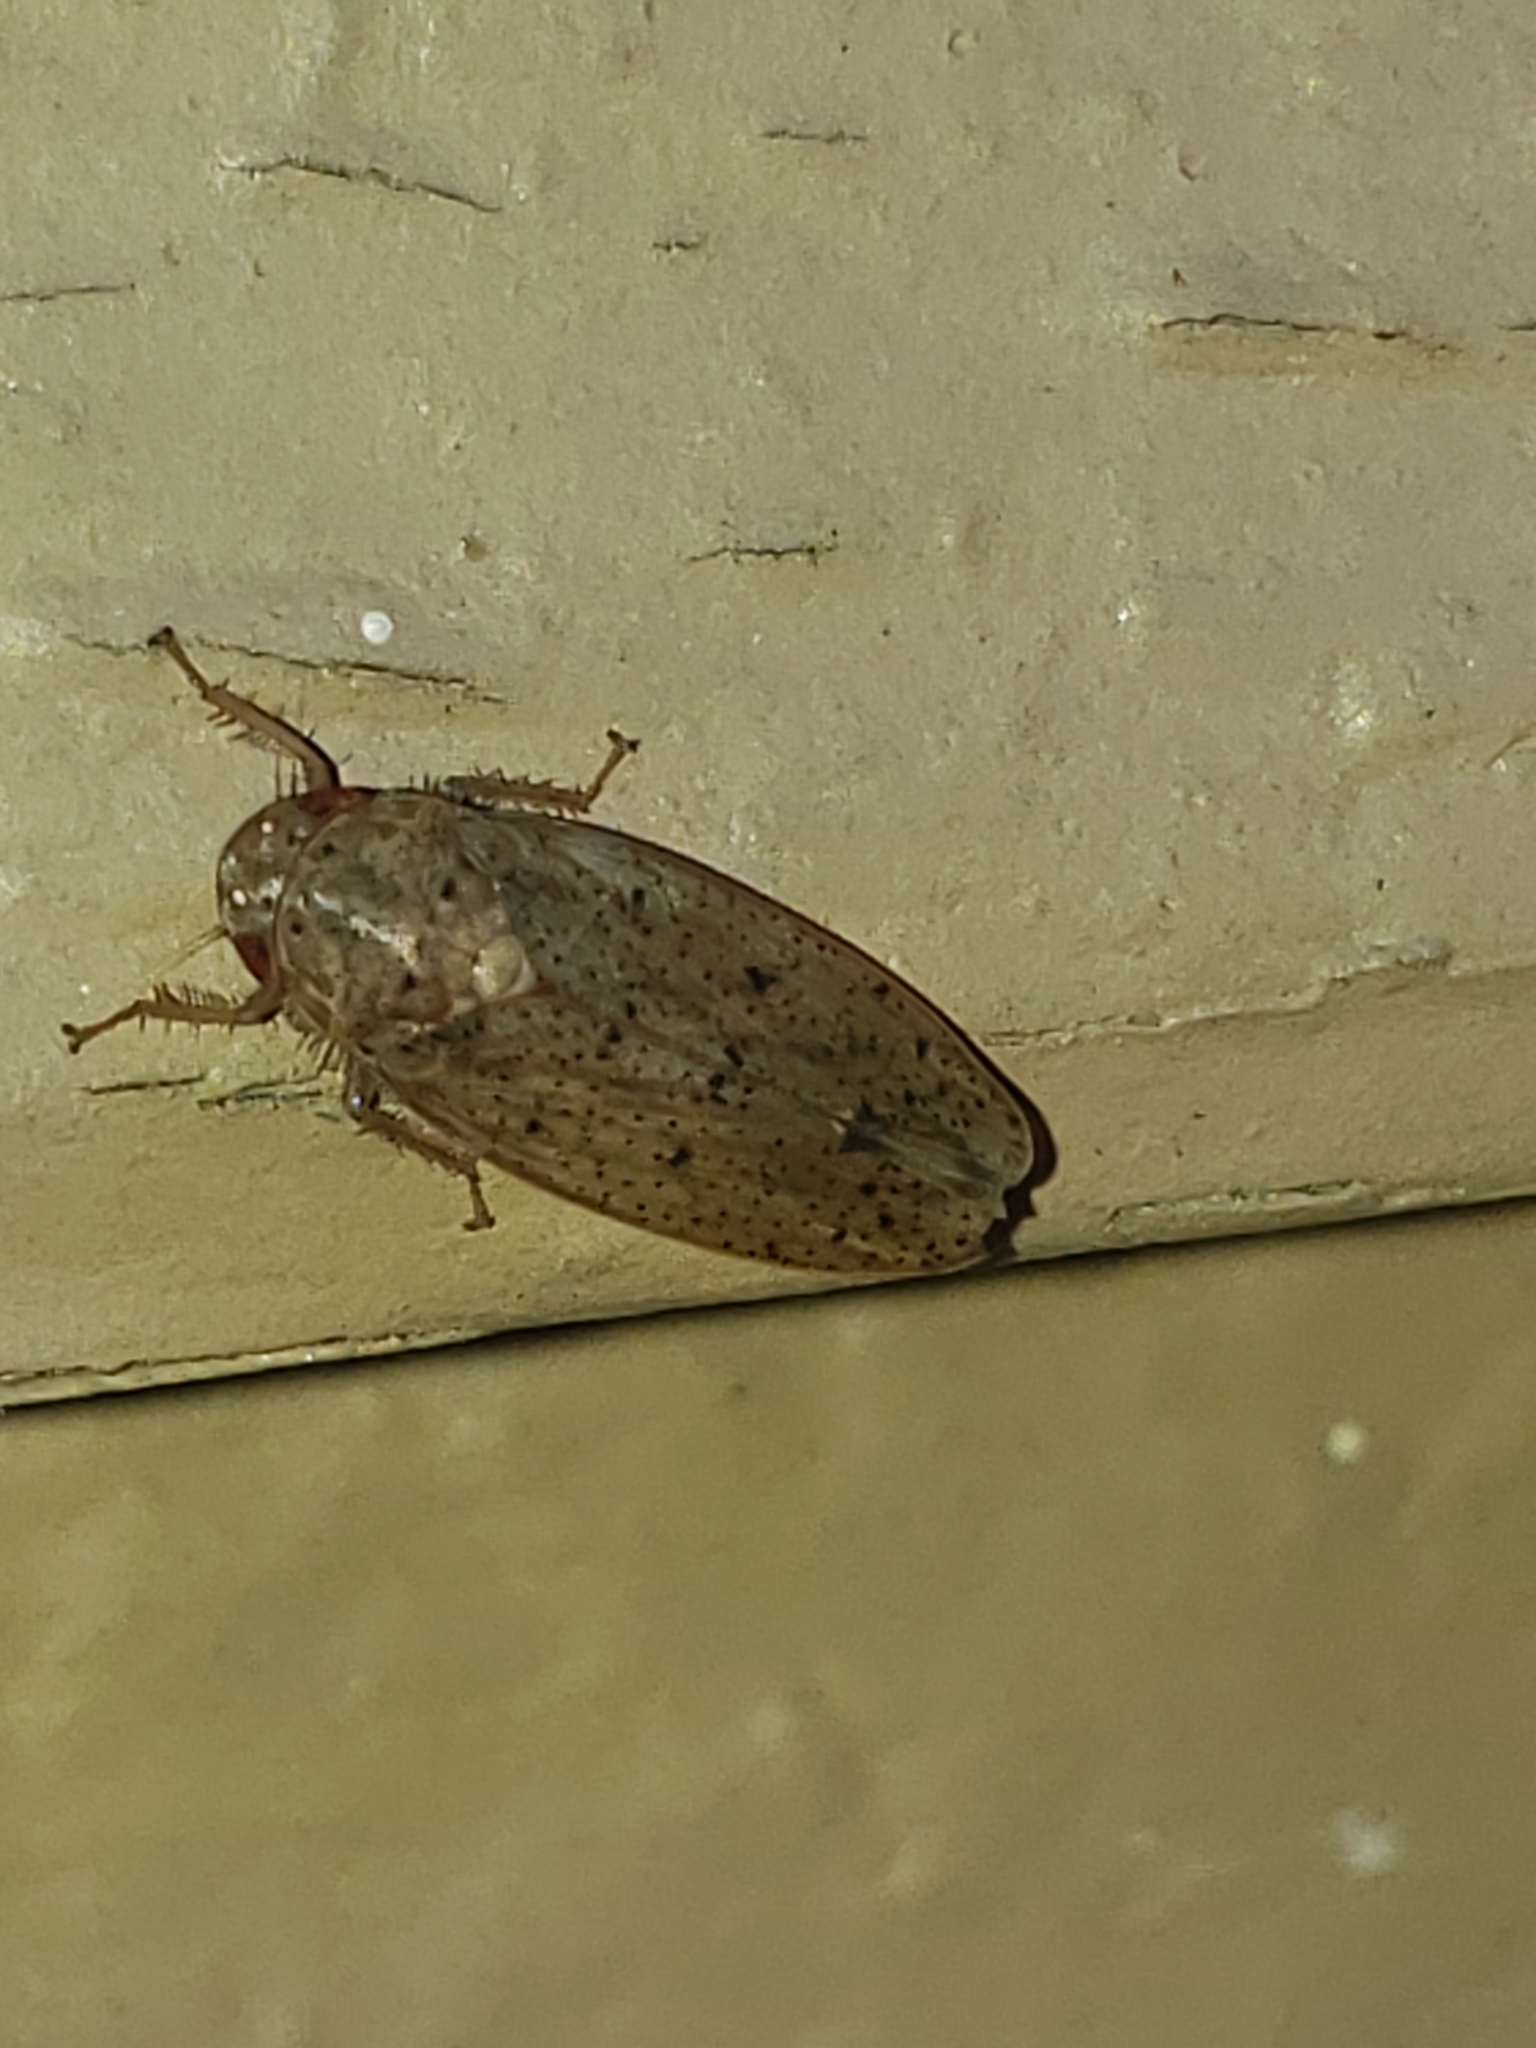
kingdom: Animalia
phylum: Arthropoda
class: Insecta
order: Hemiptera
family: Cicadellidae
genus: Ponana
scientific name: Ponana puncticollis
